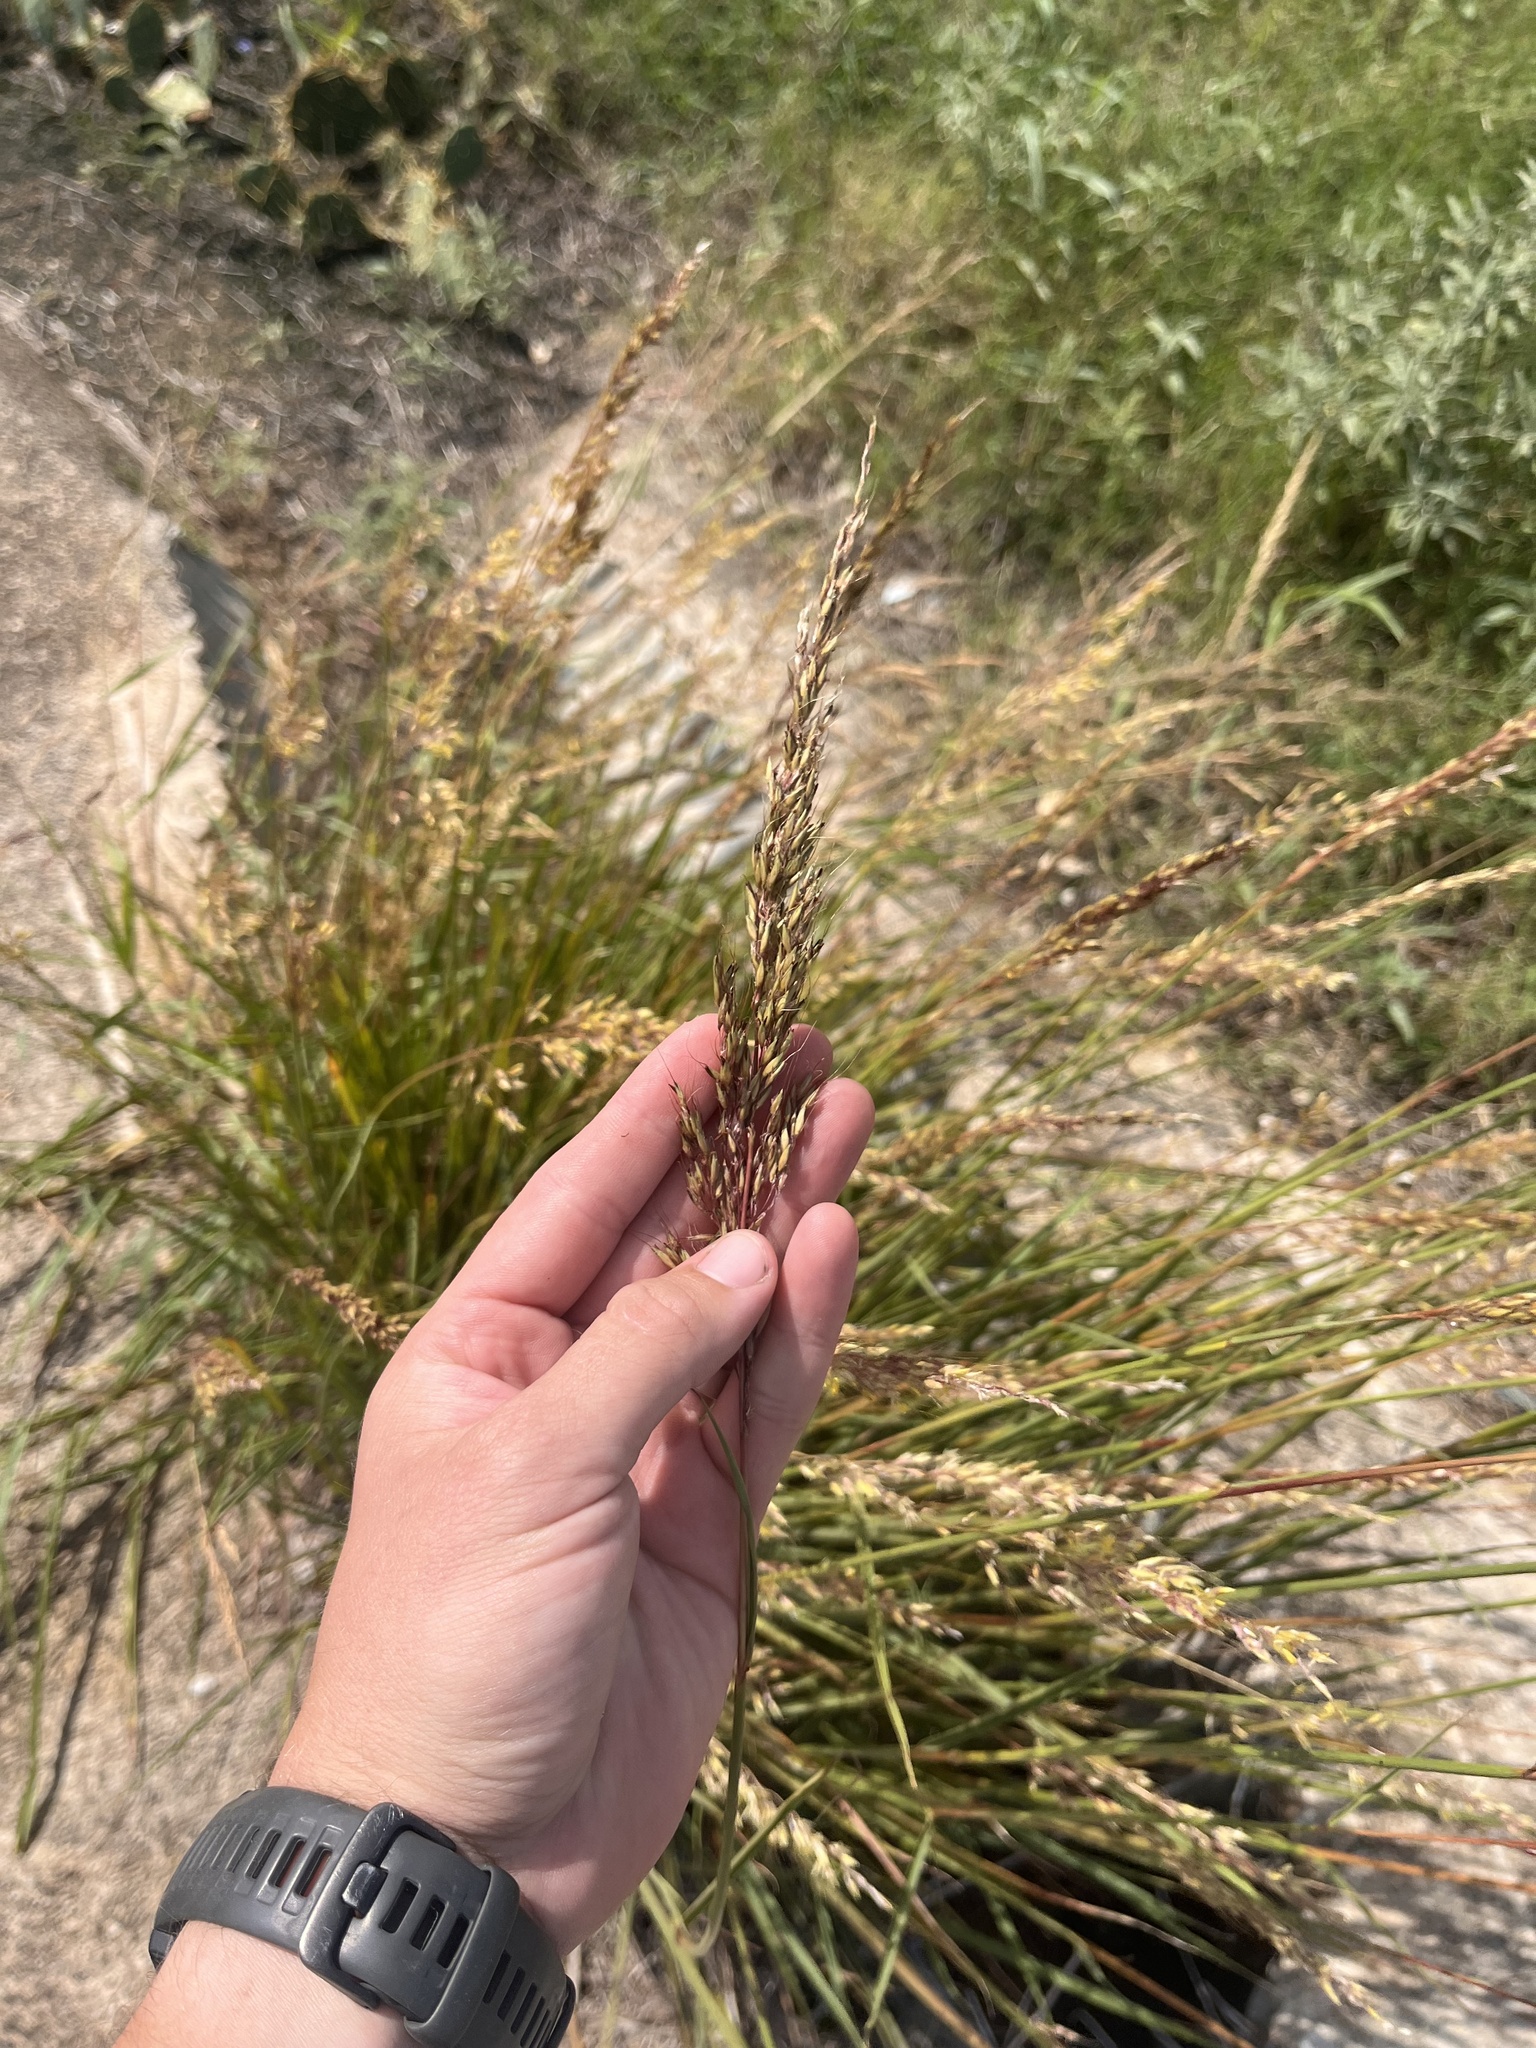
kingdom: Plantae
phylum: Tracheophyta
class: Liliopsida
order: Poales
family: Poaceae
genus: Sorghastrum
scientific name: Sorghastrum nutans
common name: Indian grass
